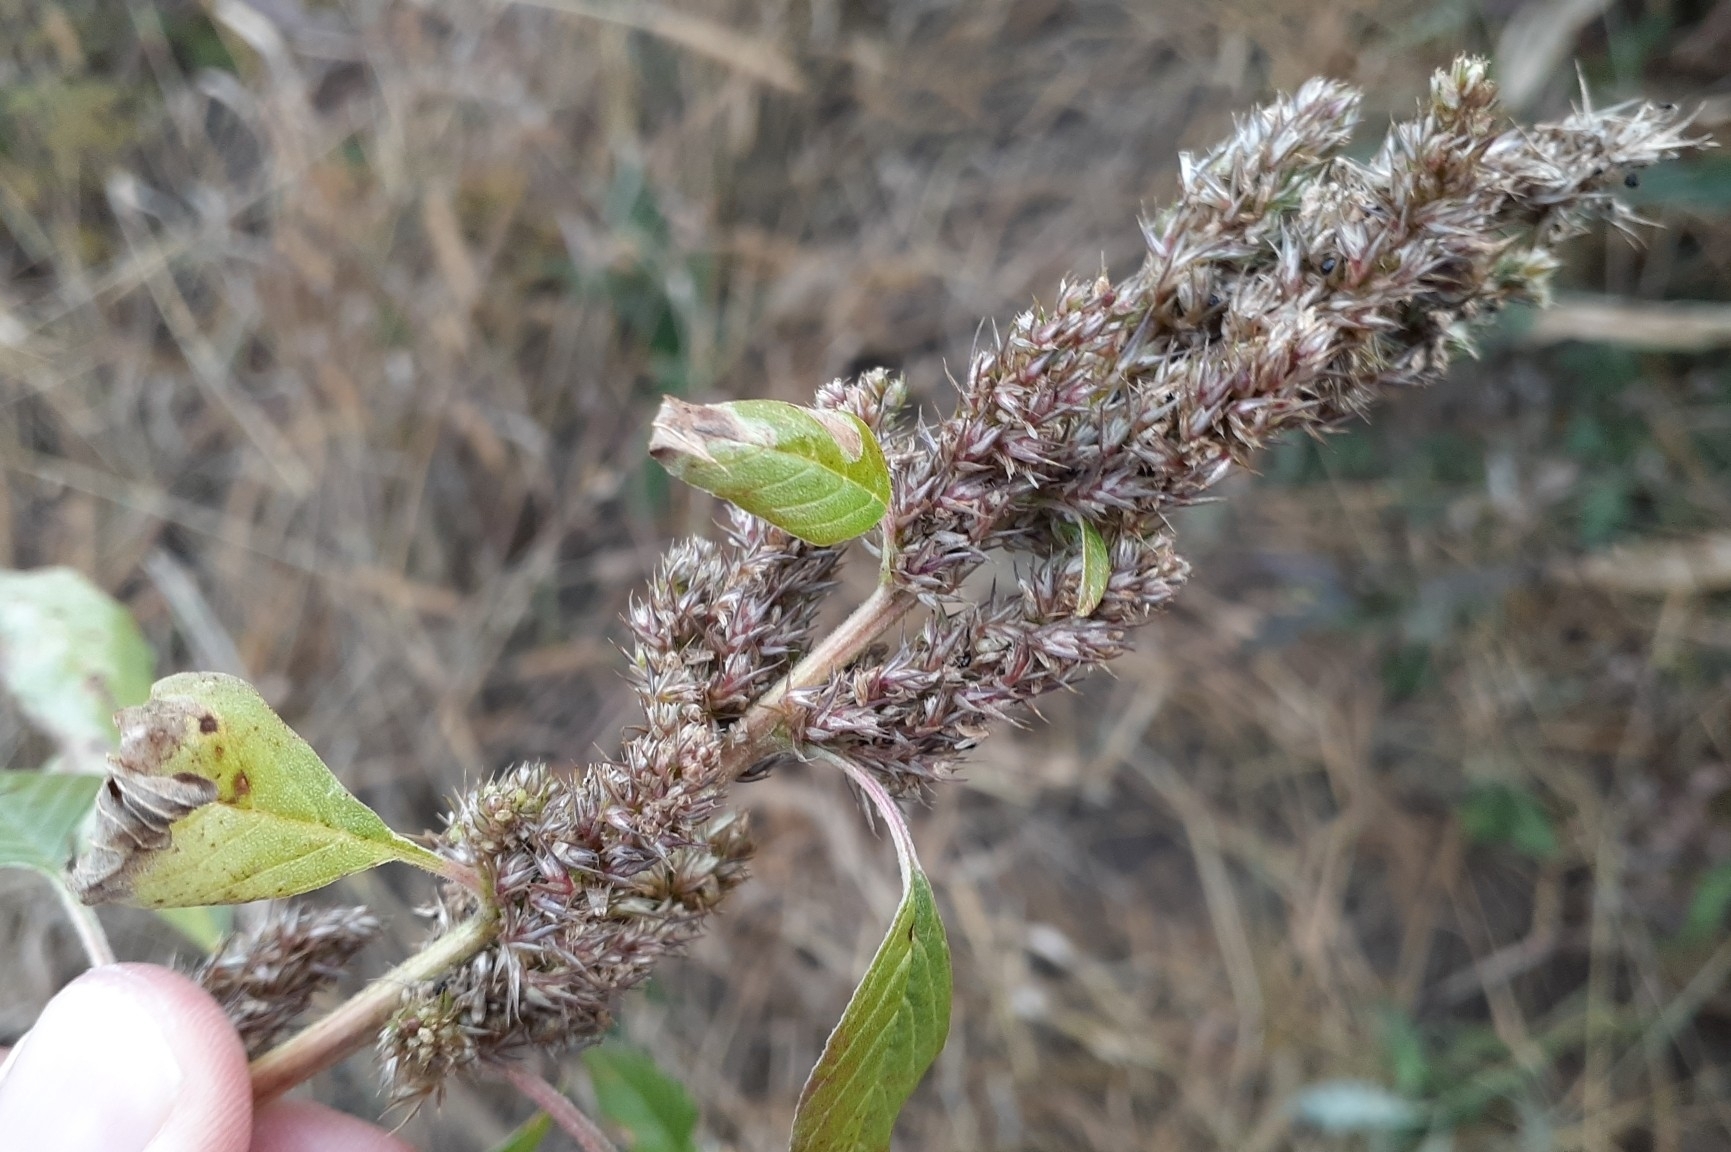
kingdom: Plantae
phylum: Tracheophyta
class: Magnoliopsida
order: Caryophyllales
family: Amaranthaceae
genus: Amaranthus
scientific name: Amaranthus retroflexus
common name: Redroot amaranth
